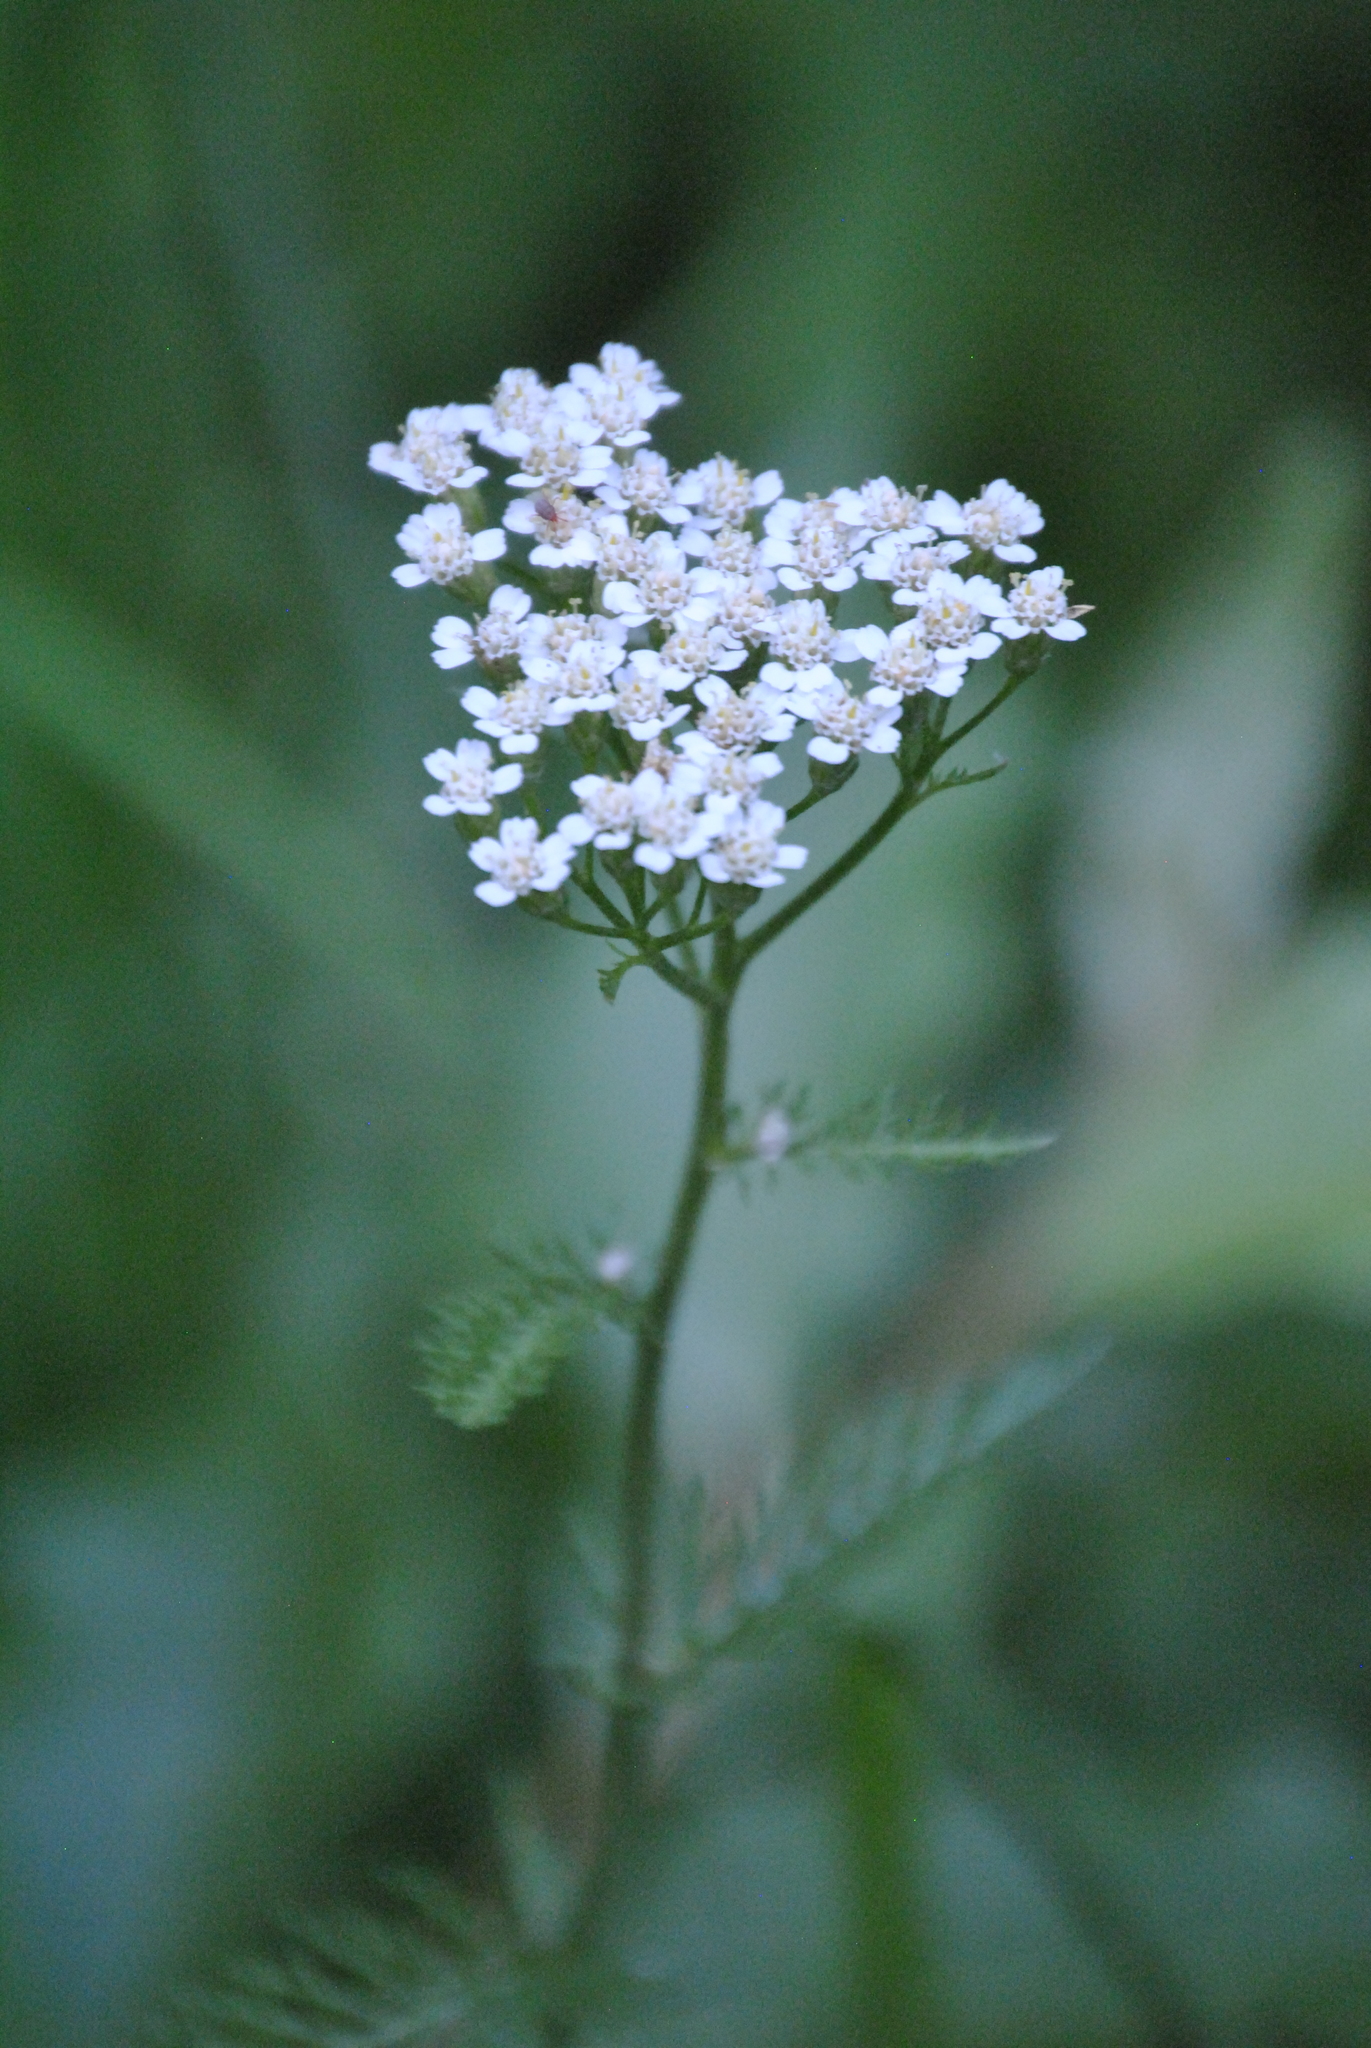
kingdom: Plantae
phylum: Tracheophyta
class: Magnoliopsida
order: Asterales
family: Asteraceae
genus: Achillea
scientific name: Achillea millefolium
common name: Yarrow
